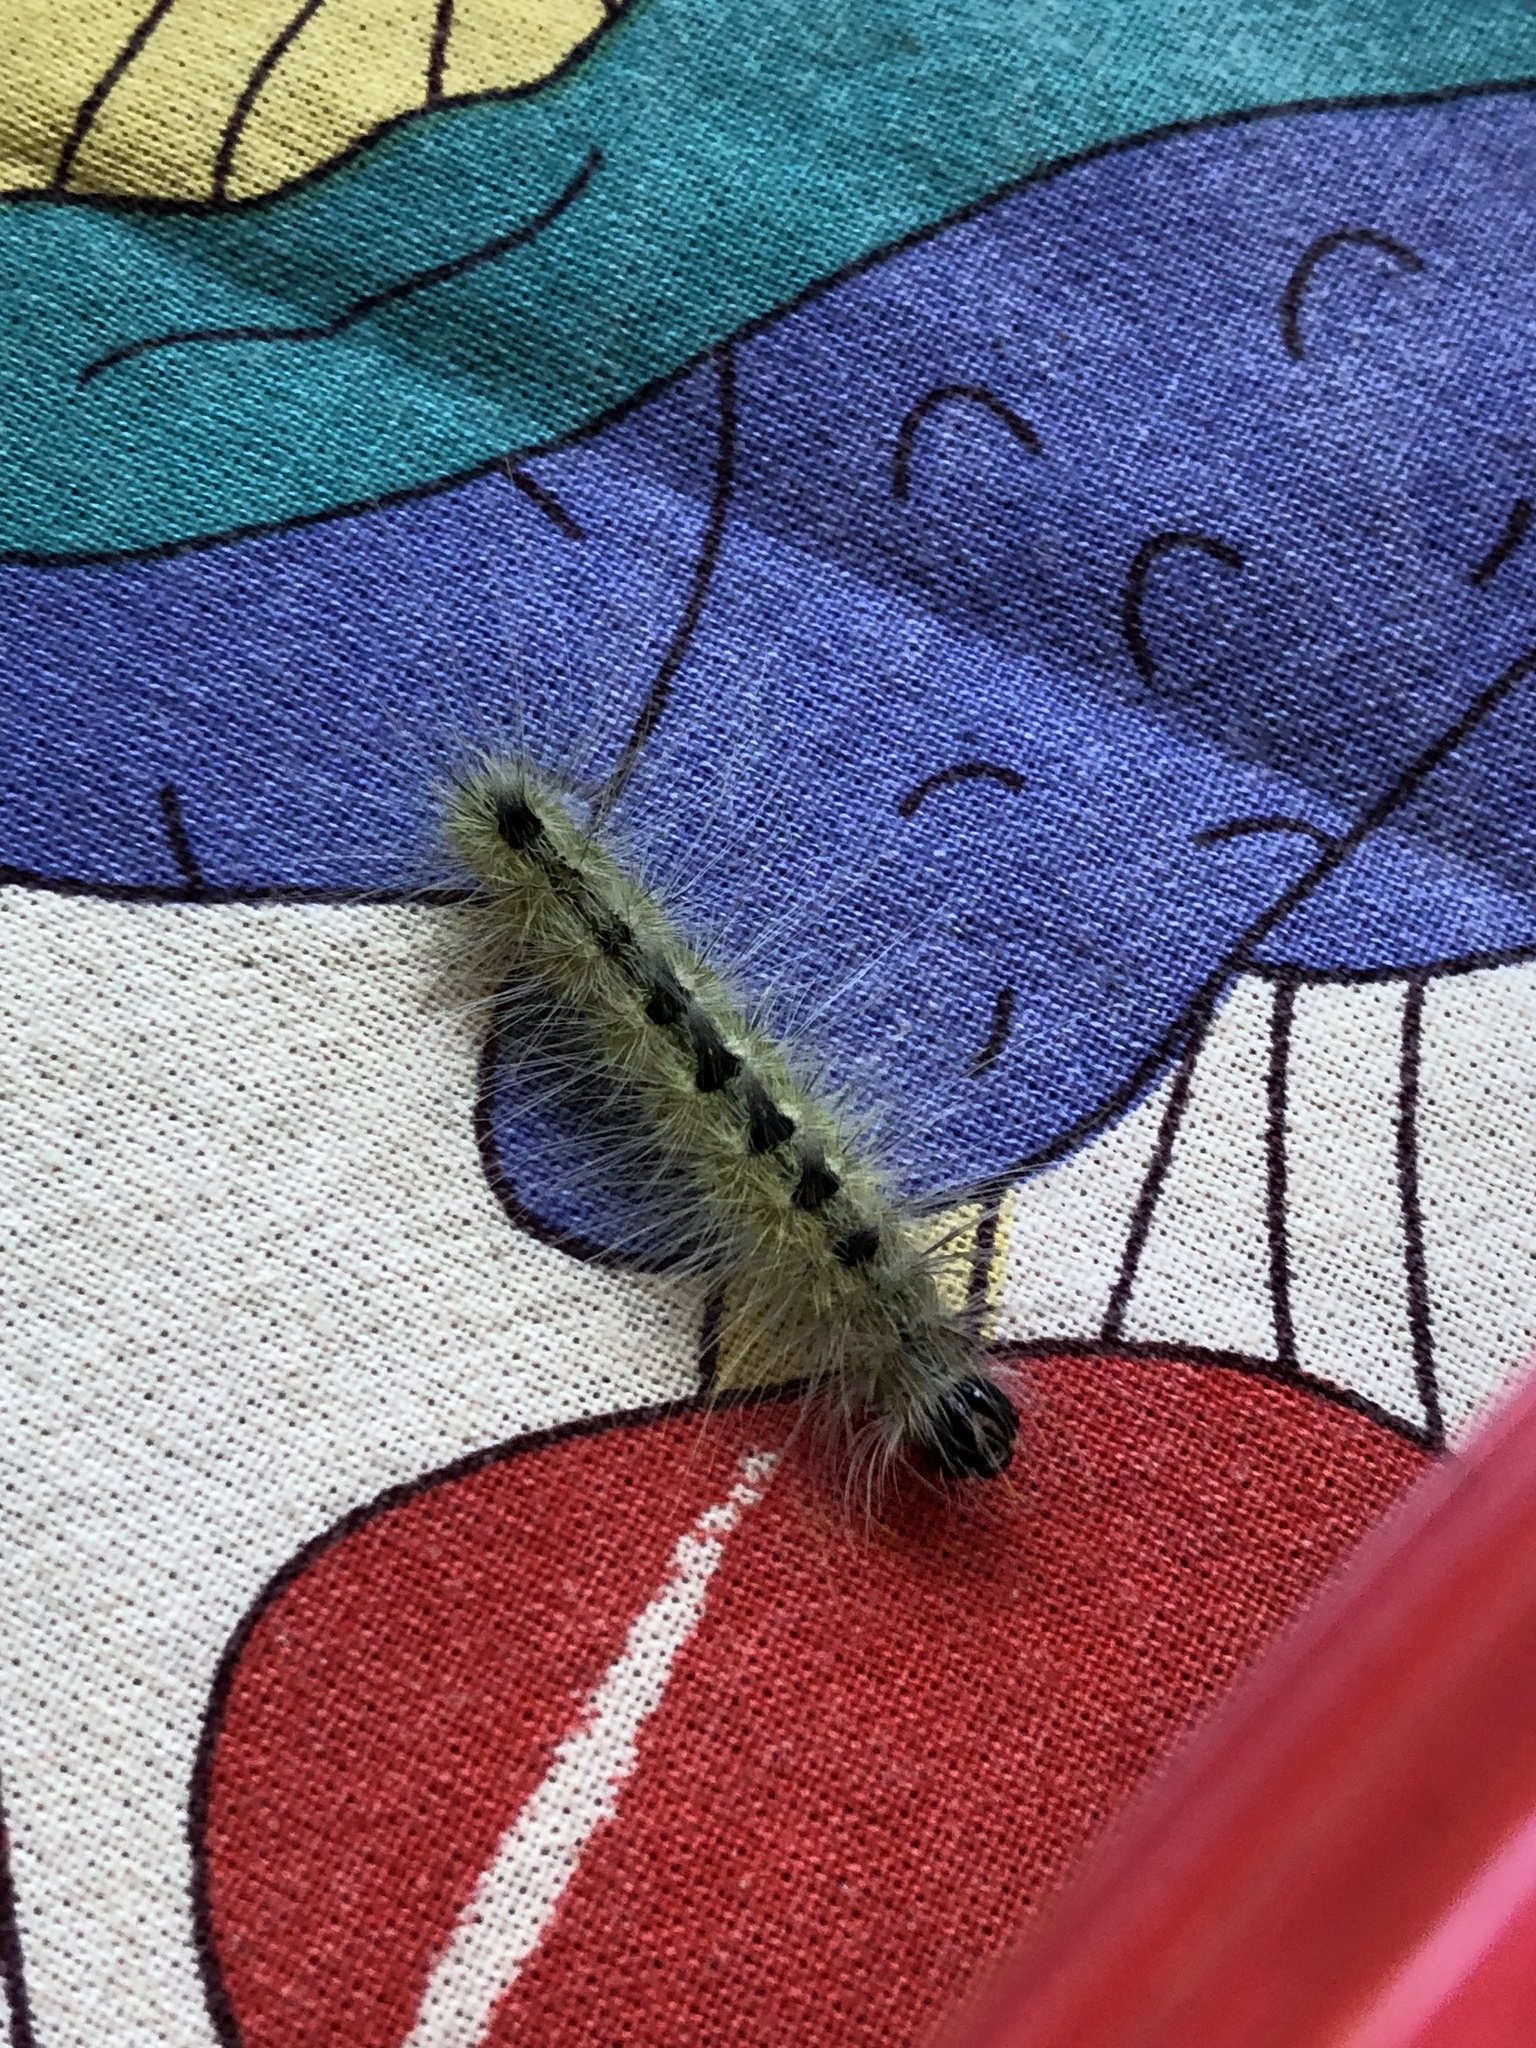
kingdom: Animalia
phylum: Arthropoda
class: Insecta
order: Lepidoptera
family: Noctuidae
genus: Acronicta
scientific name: Acronicta rubricoma
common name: Hackberry dagger
